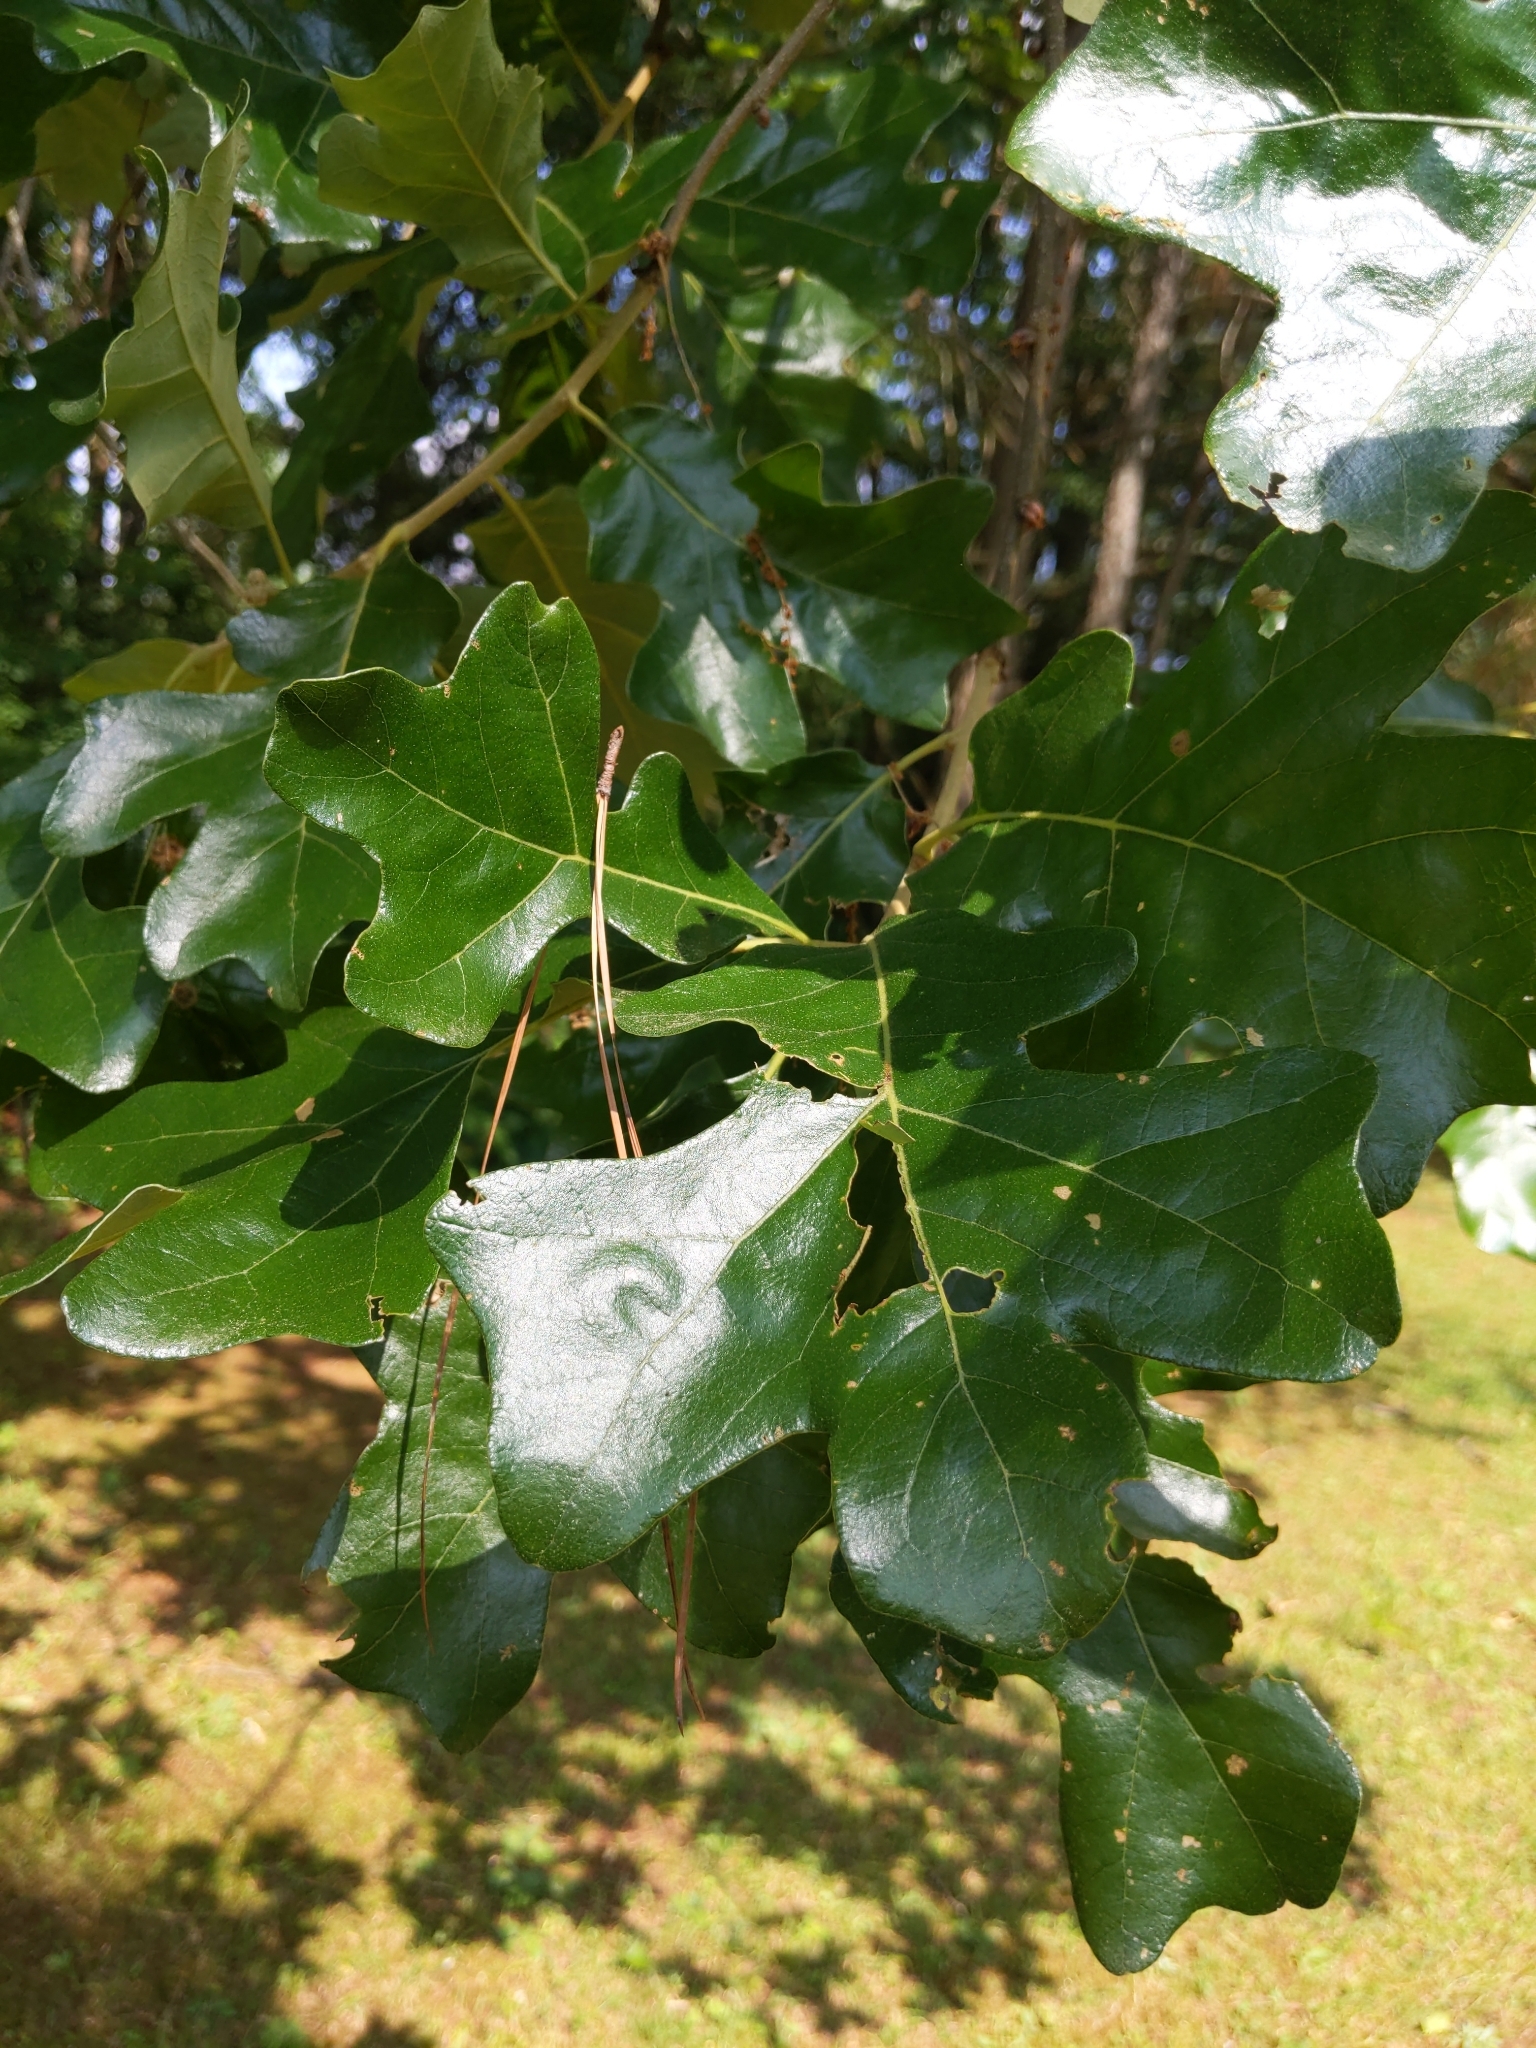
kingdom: Plantae
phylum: Tracheophyta
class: Magnoliopsida
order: Fagales
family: Fagaceae
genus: Quercus
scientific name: Quercus stellata
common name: Post oak
